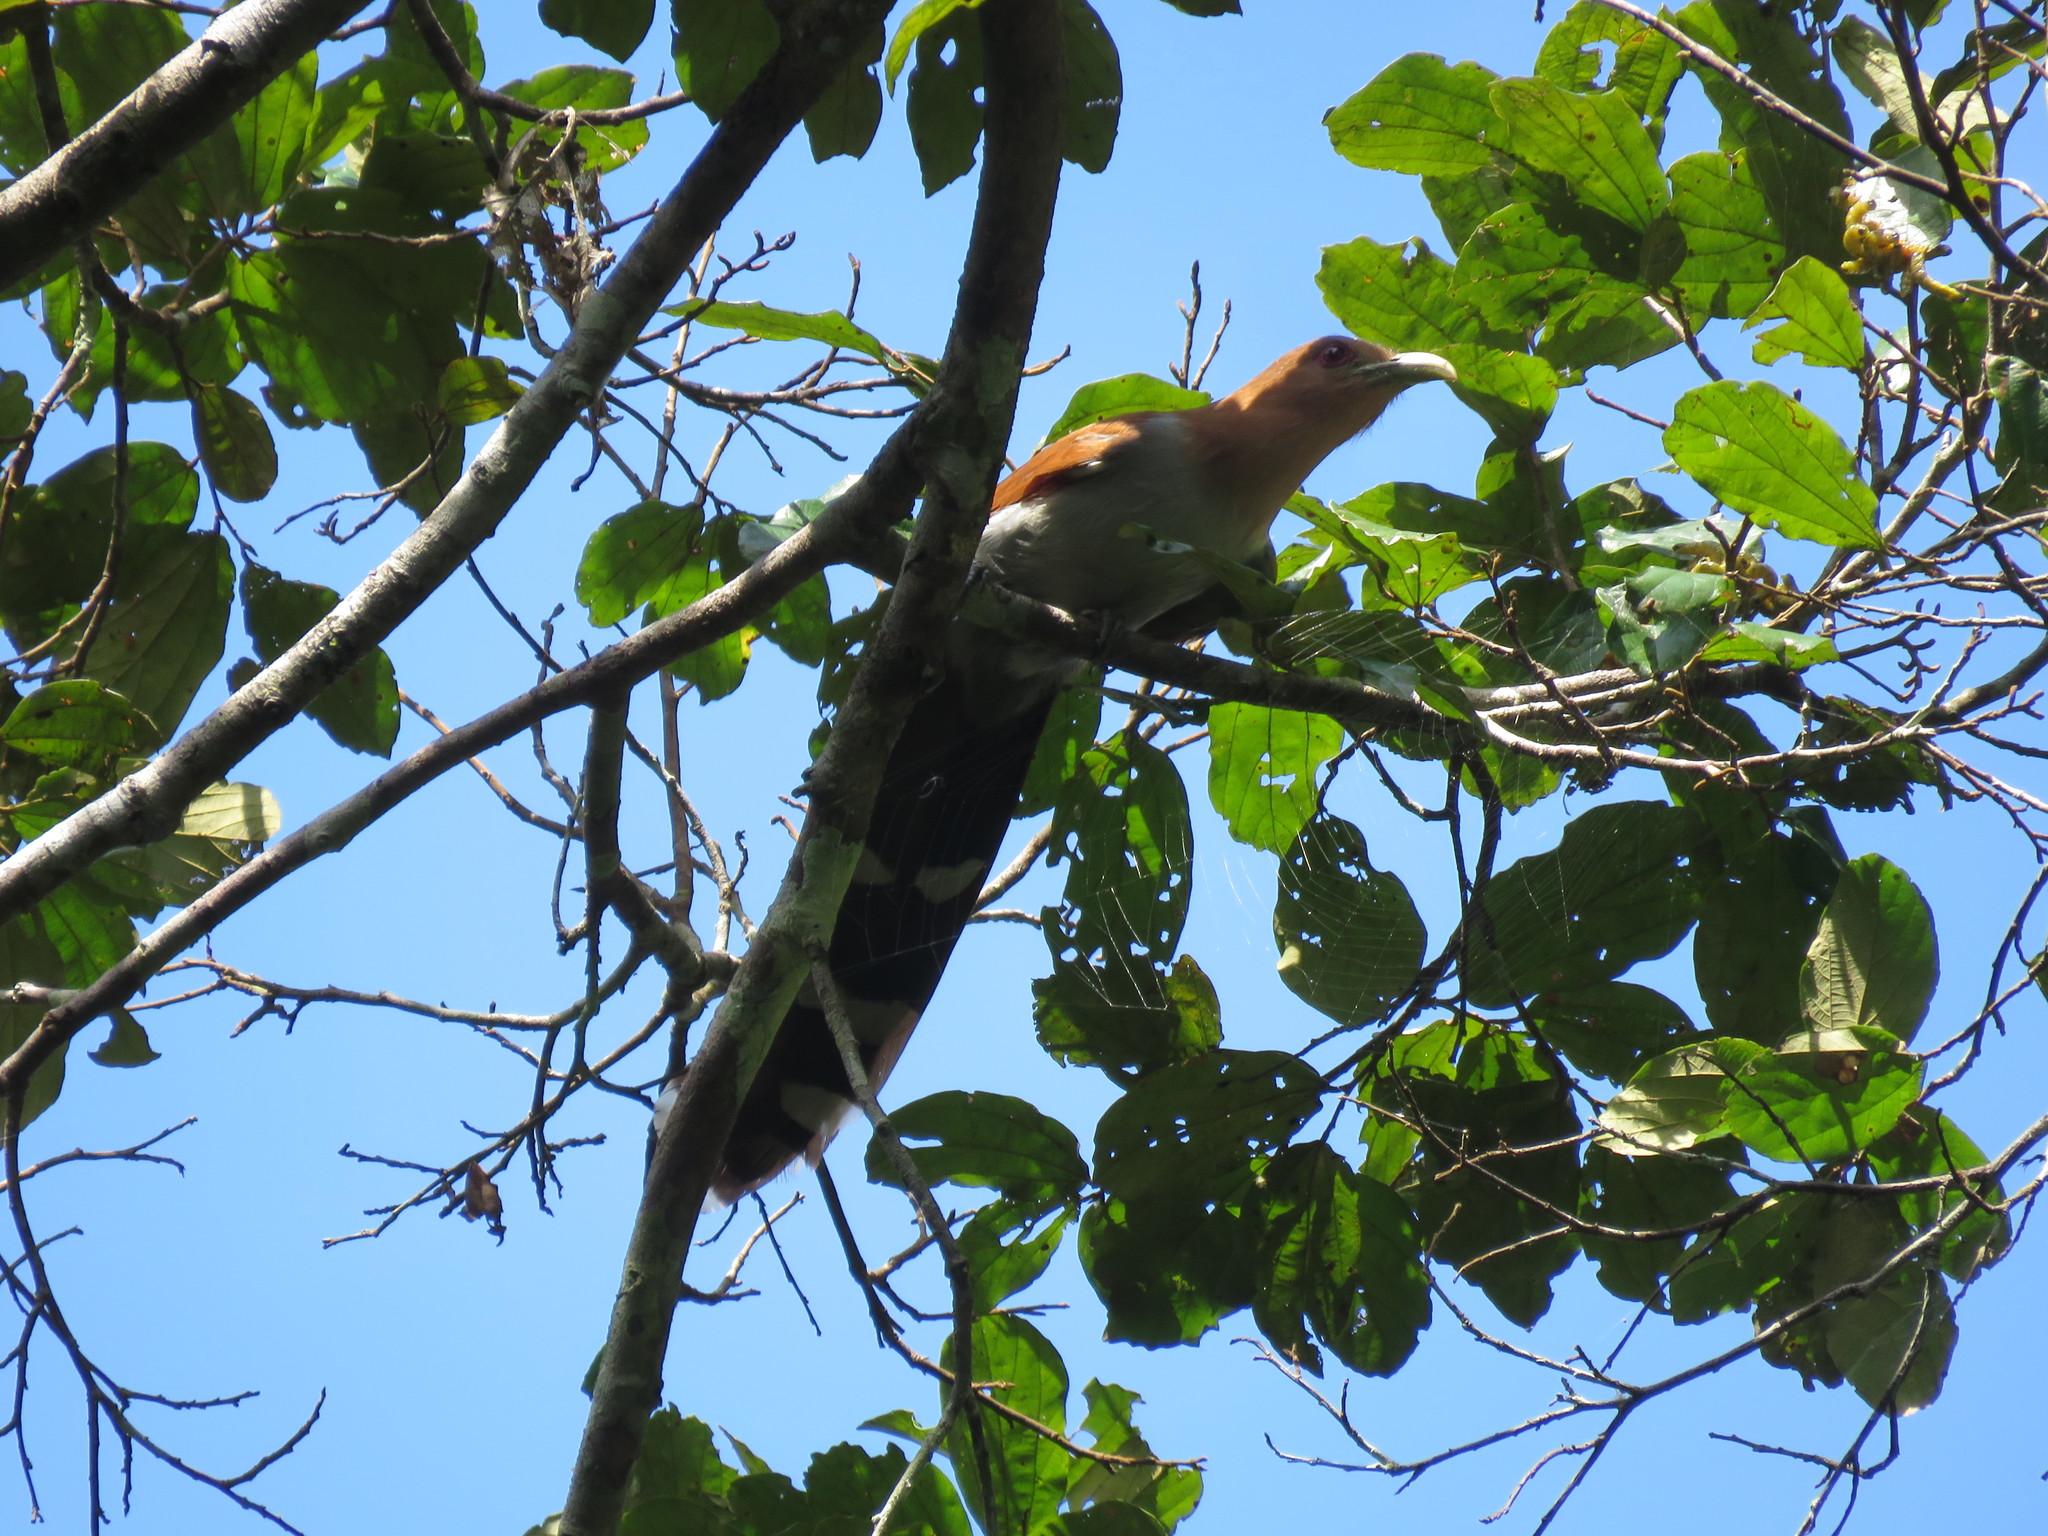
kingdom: Animalia
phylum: Chordata
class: Aves
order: Cuculiformes
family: Cuculidae
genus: Piaya
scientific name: Piaya cayana
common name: Squirrel cuckoo
